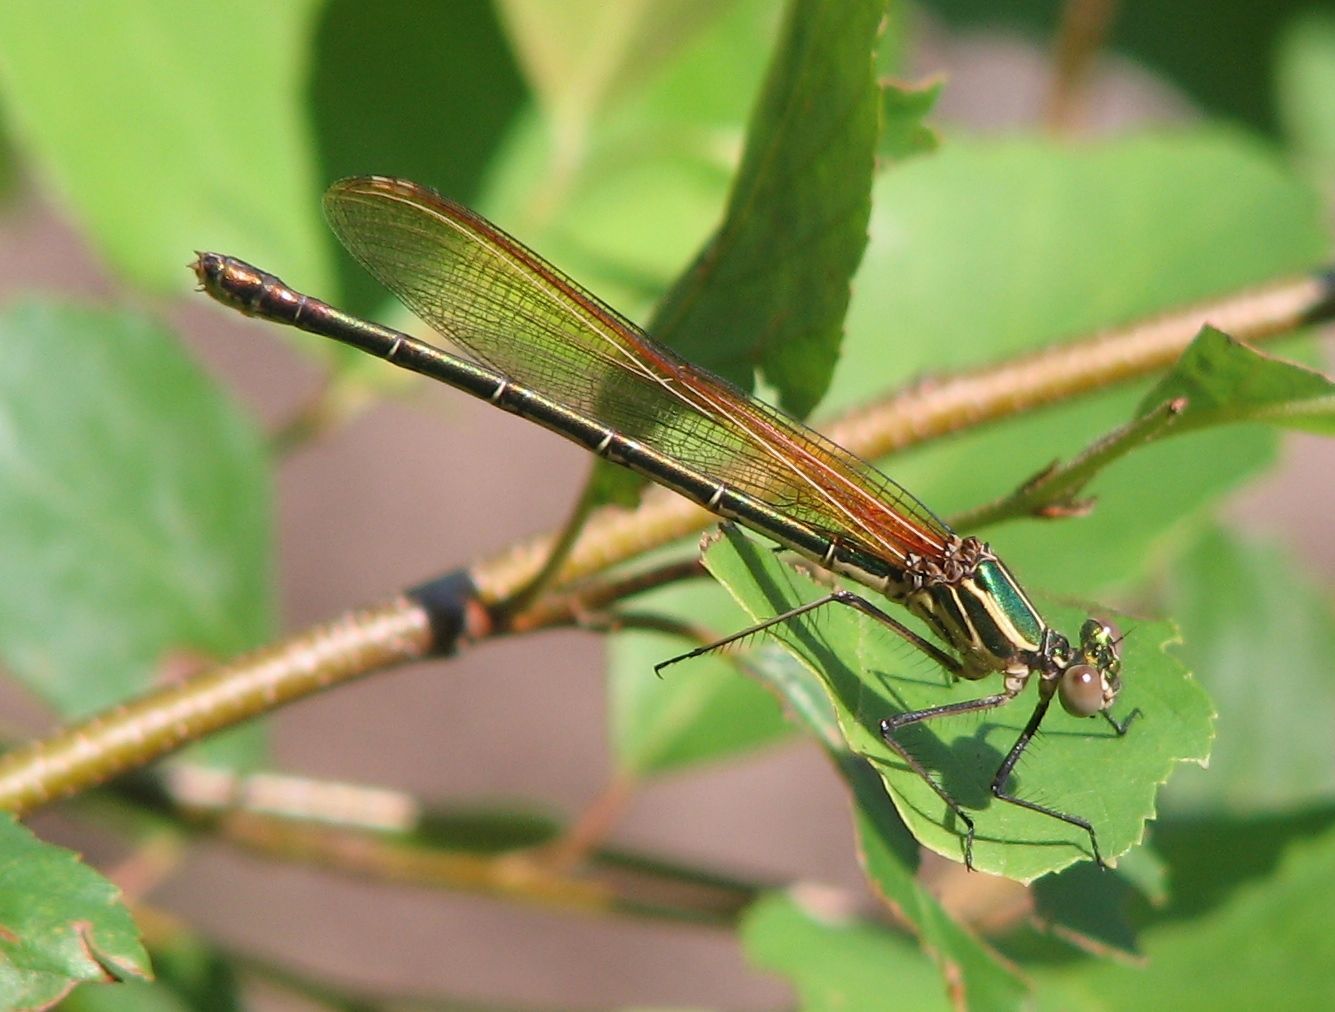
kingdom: Animalia
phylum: Arthropoda
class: Insecta
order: Odonata
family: Calopterygidae
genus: Hetaerina
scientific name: Hetaerina americana
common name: American rubyspot
